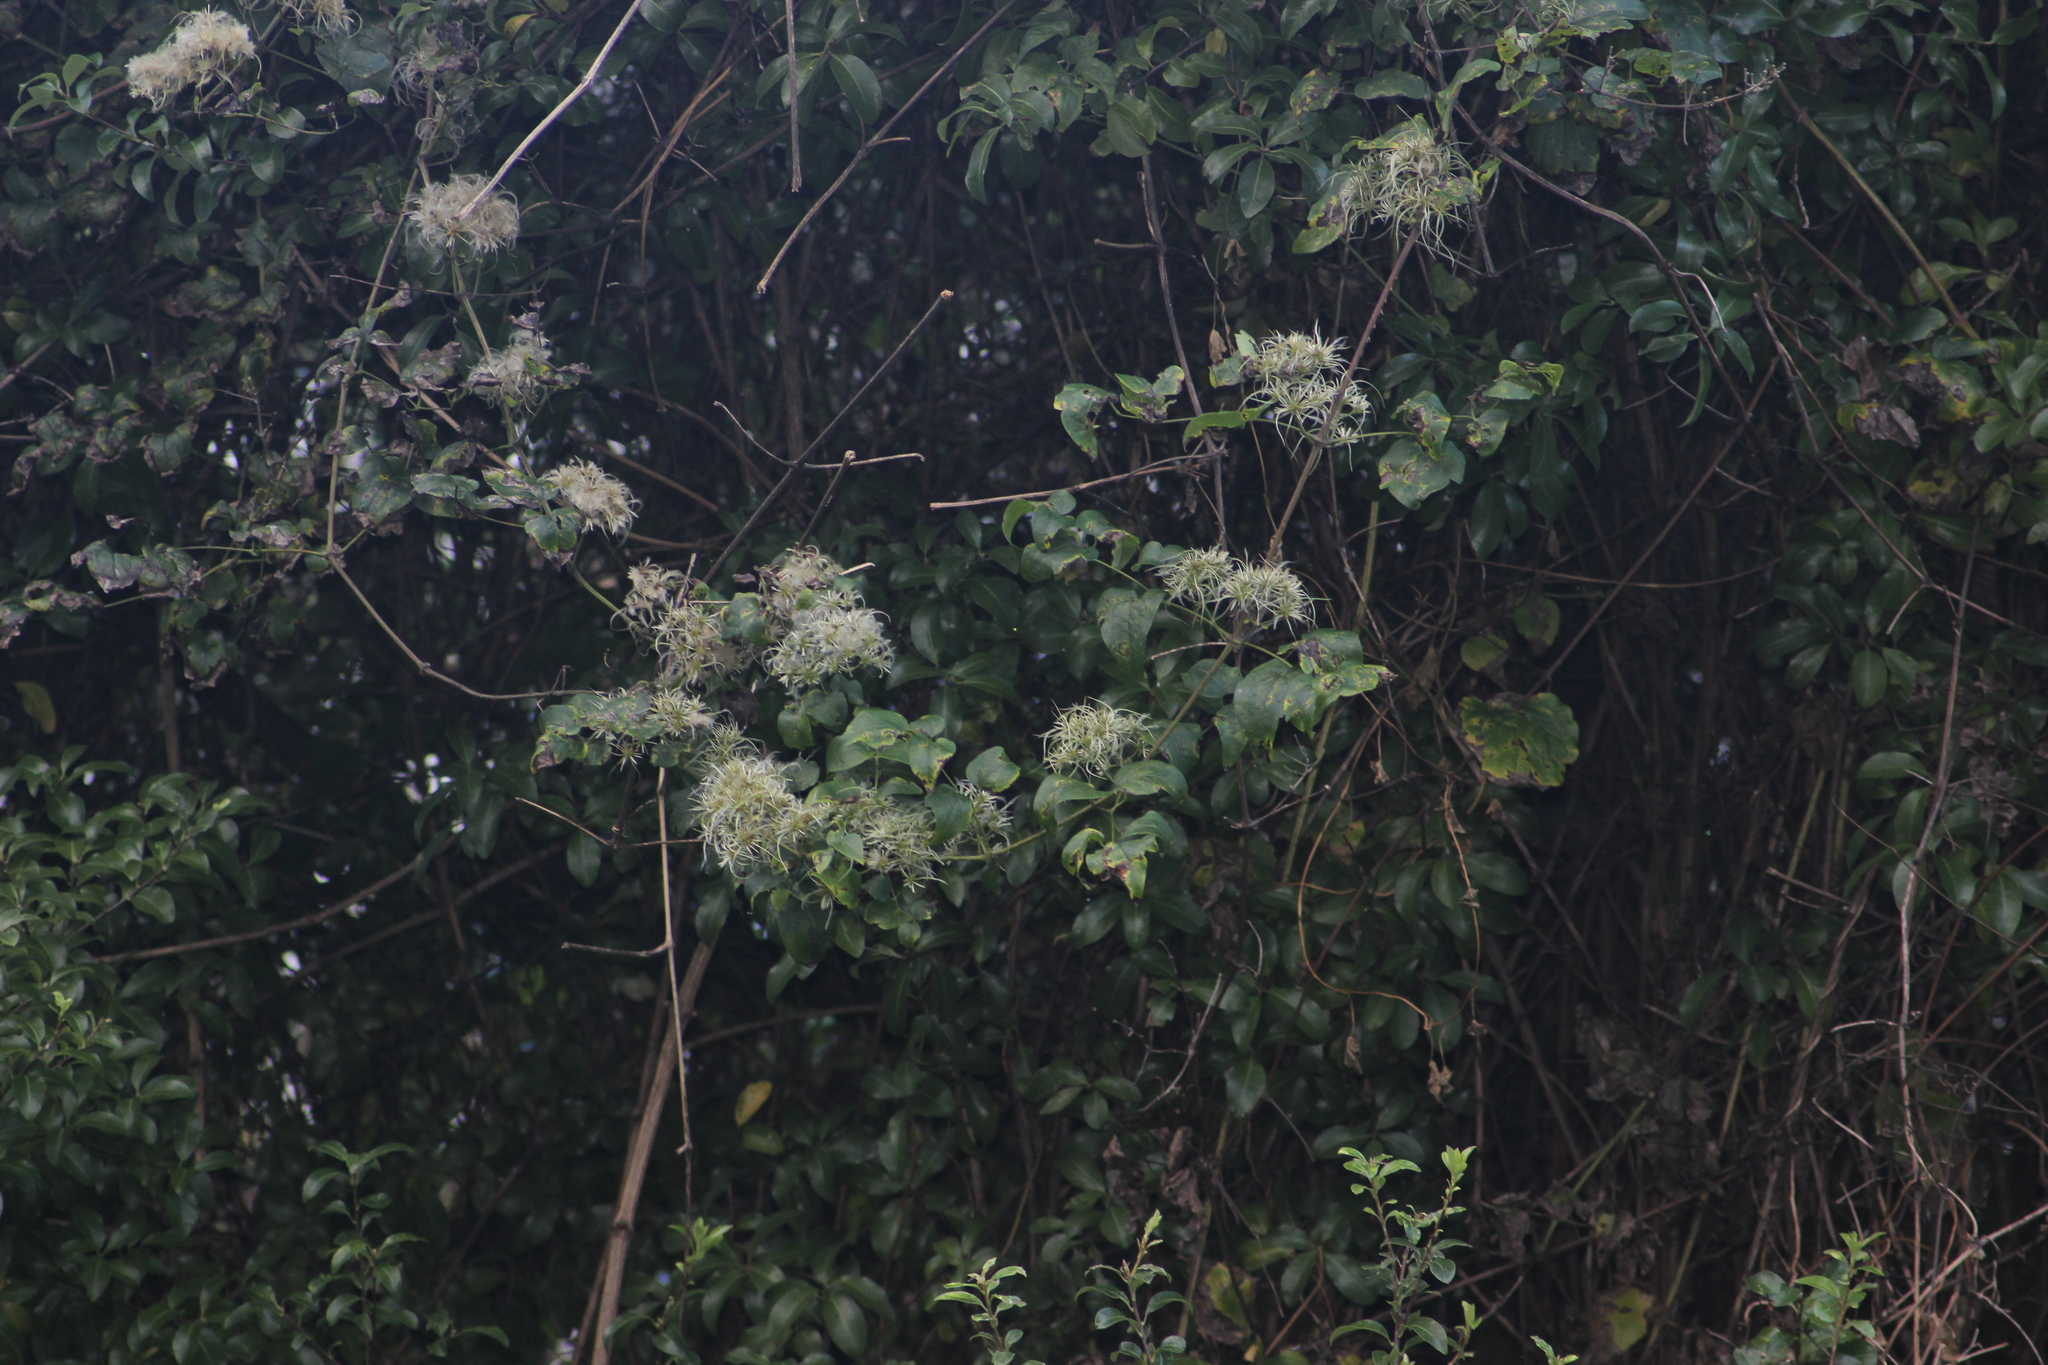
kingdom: Plantae
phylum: Tracheophyta
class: Magnoliopsida
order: Ranunculales
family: Ranunculaceae
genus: Clematis
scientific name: Clematis vitalba
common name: Evergreen clematis
